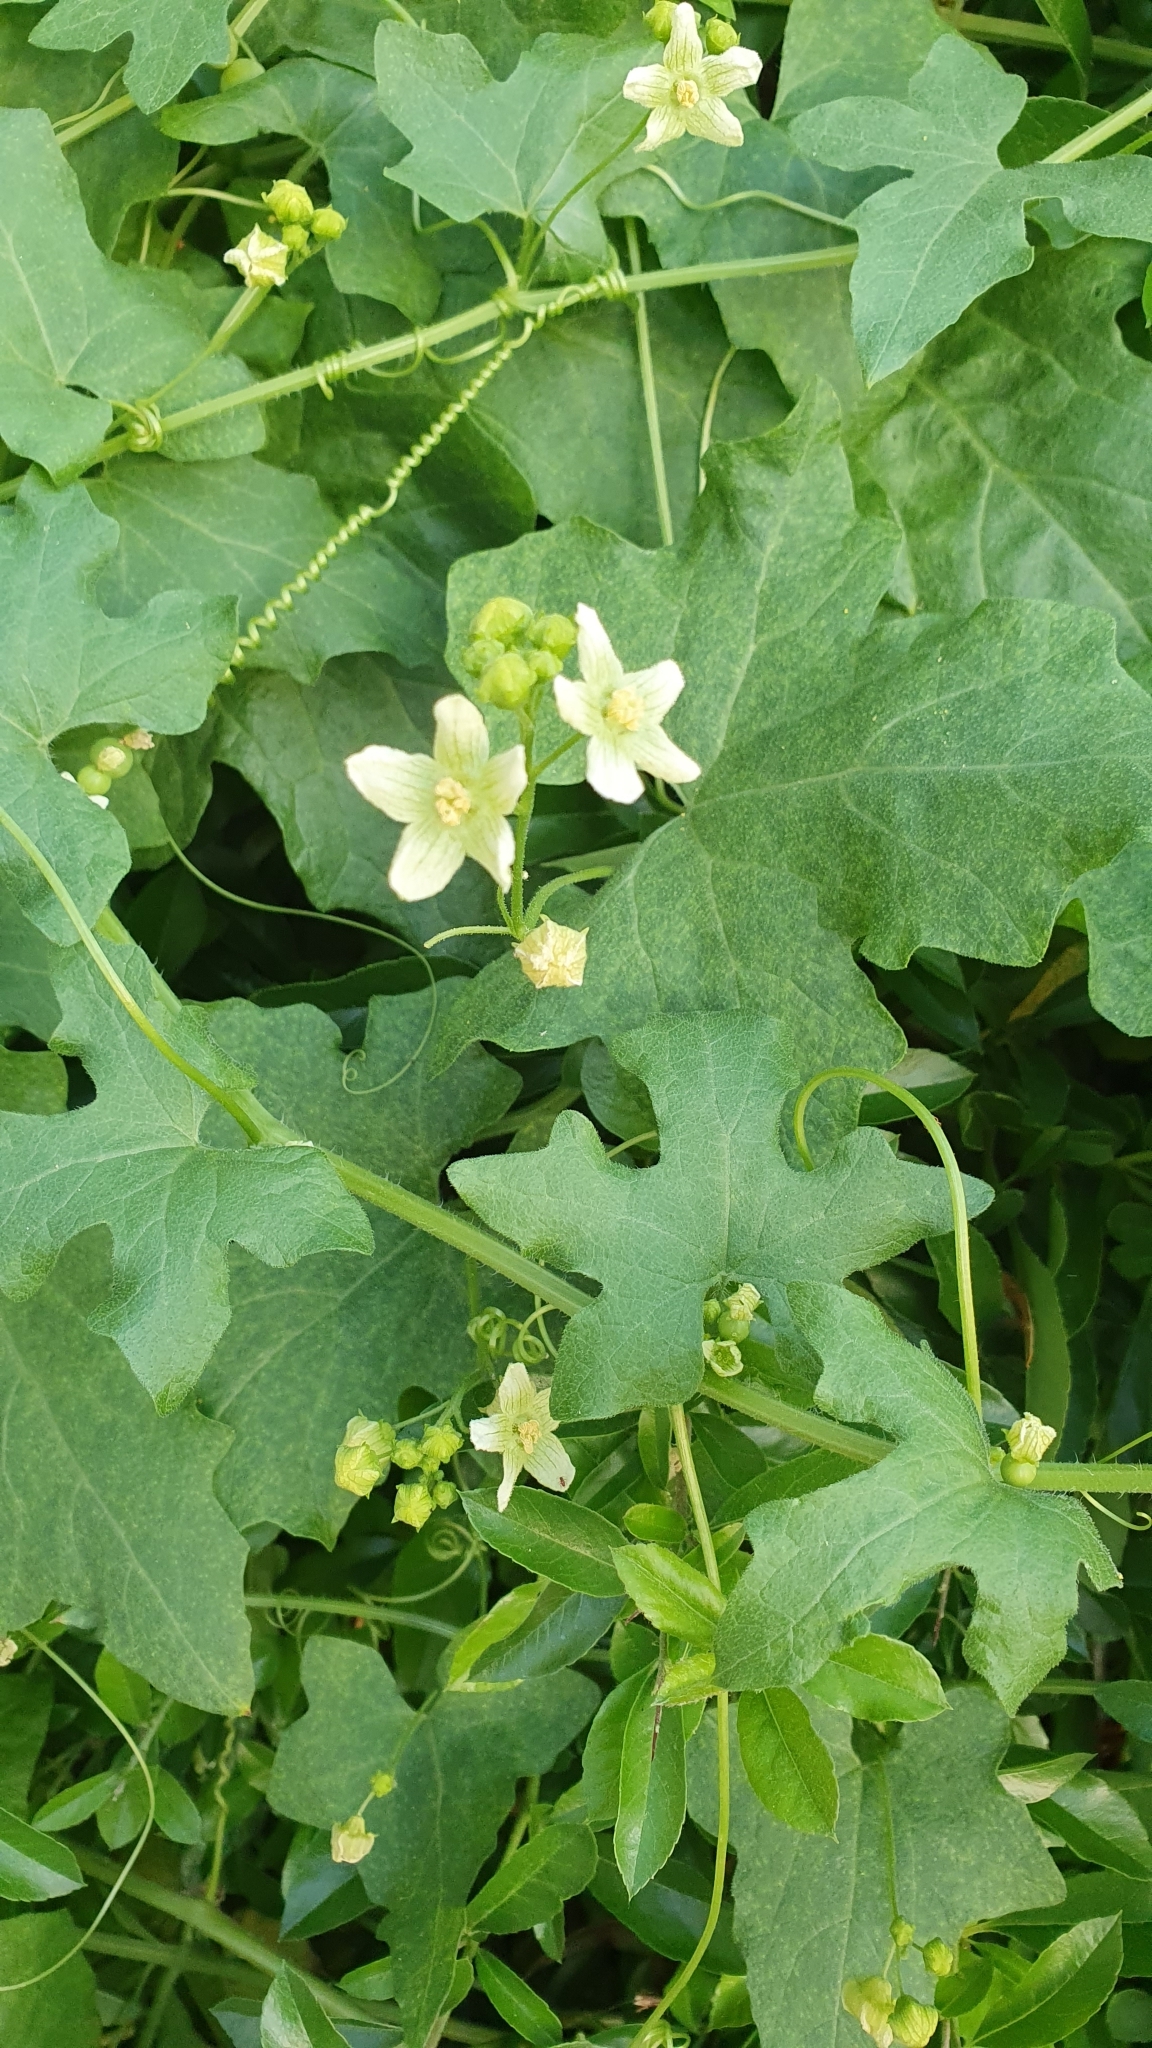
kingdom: Plantae
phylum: Tracheophyta
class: Magnoliopsida
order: Cucurbitales
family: Cucurbitaceae
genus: Bryonia
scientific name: Bryonia alba
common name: White bryony
